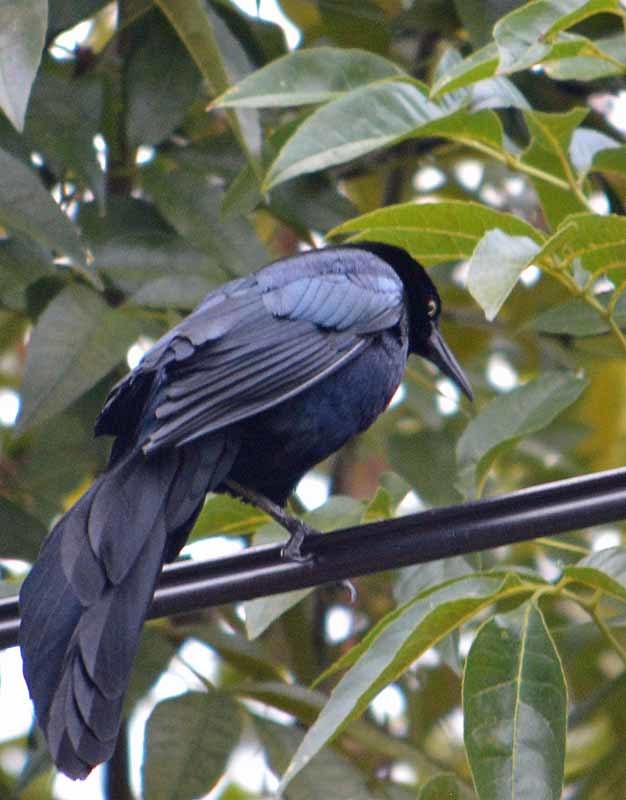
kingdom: Animalia
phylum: Chordata
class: Aves
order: Passeriformes
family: Icteridae
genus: Quiscalus
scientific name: Quiscalus mexicanus
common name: Great-tailed grackle
